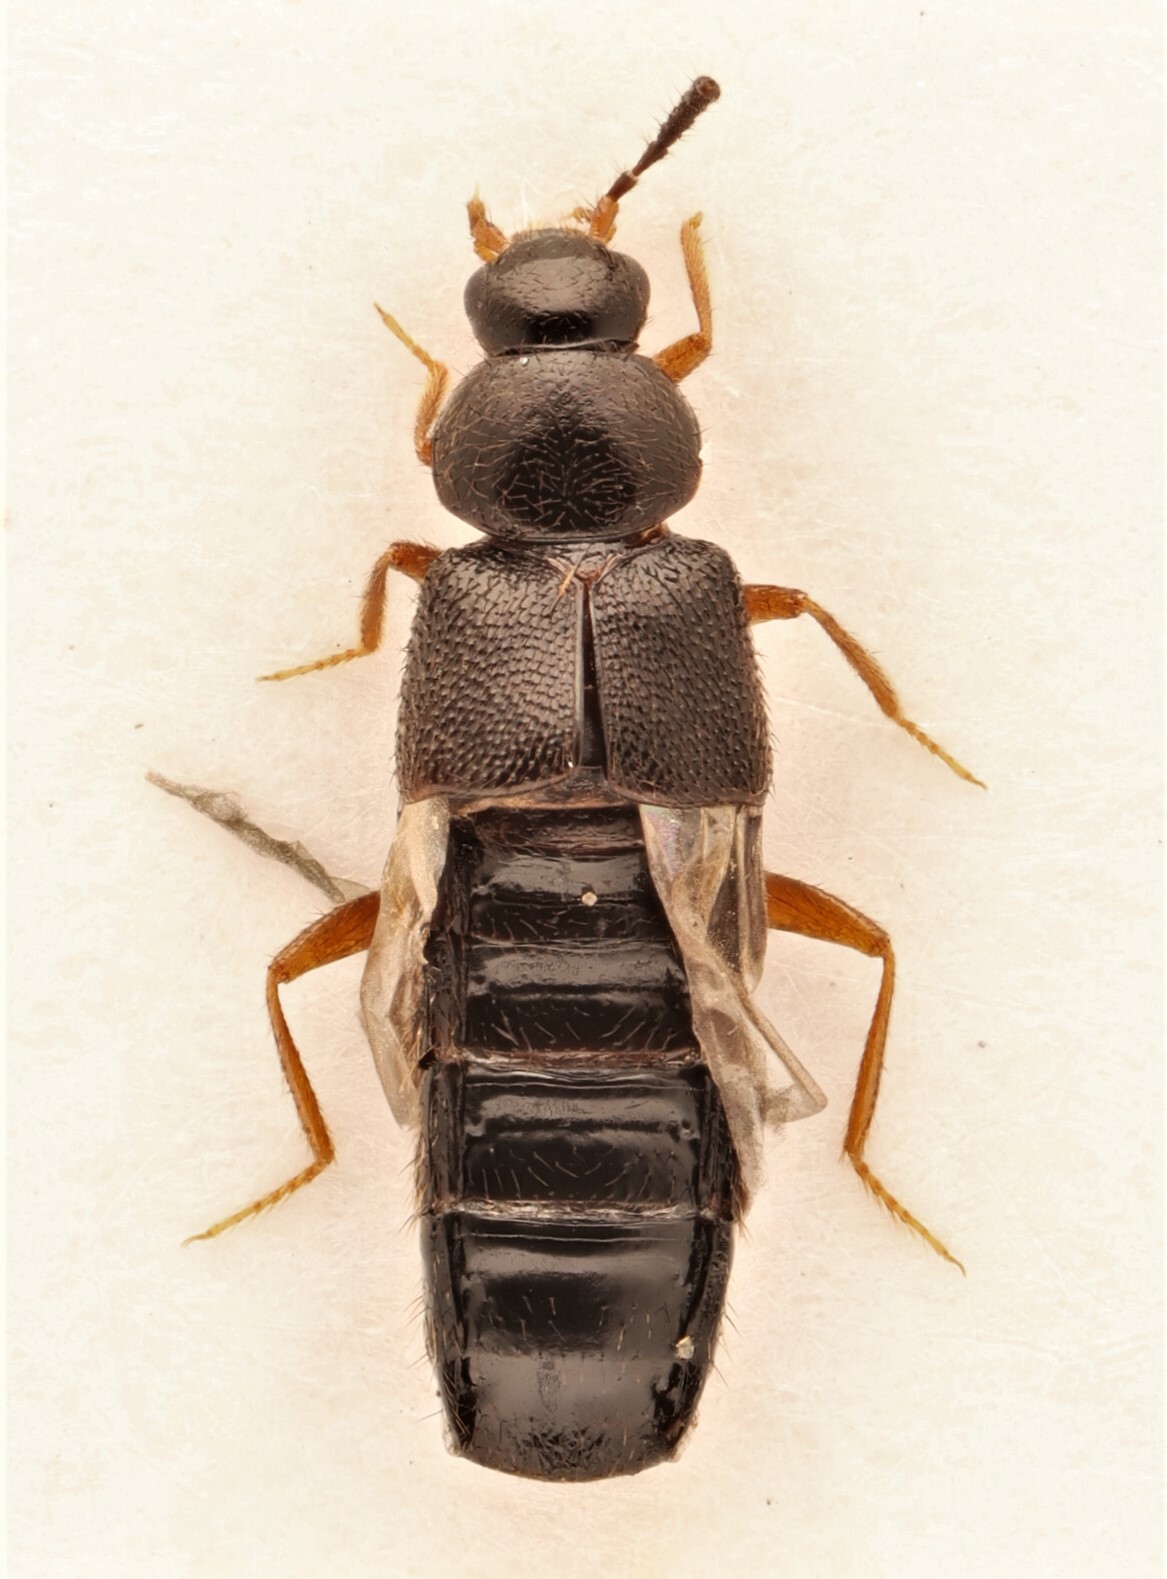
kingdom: Animalia
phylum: Arthropoda
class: Insecta
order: Coleoptera
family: Staphylinidae
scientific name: Staphylinidae
